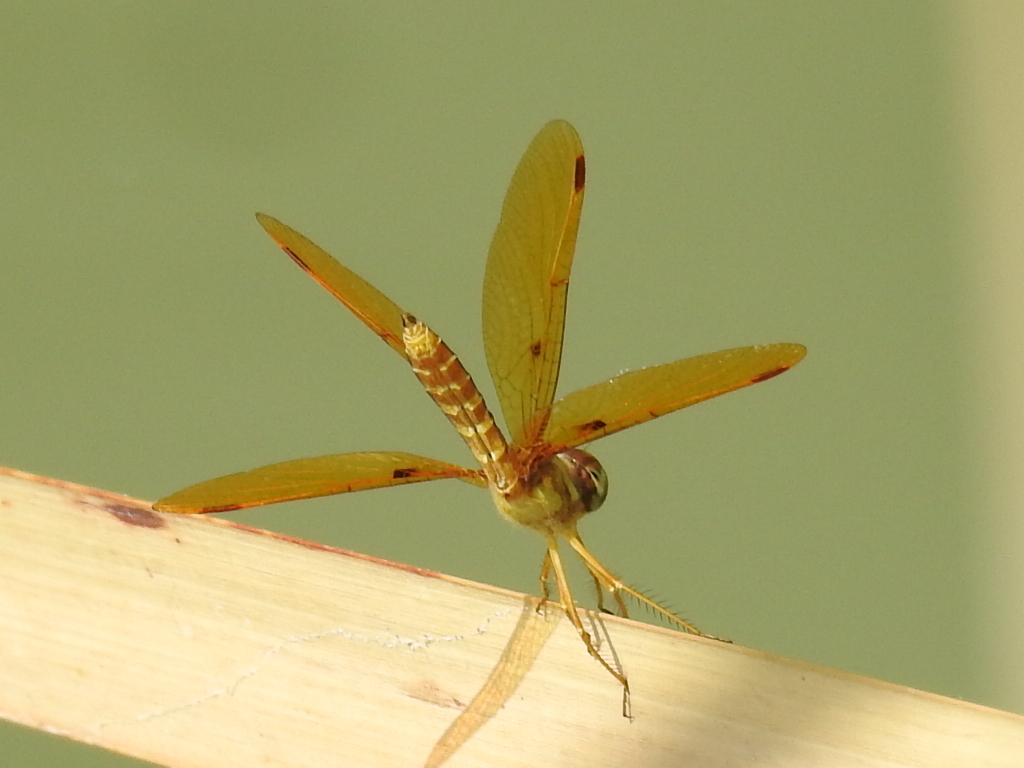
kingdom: Animalia
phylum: Arthropoda
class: Insecta
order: Odonata
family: Libellulidae
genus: Perithemis
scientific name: Perithemis tenera
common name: Eastern amberwing
